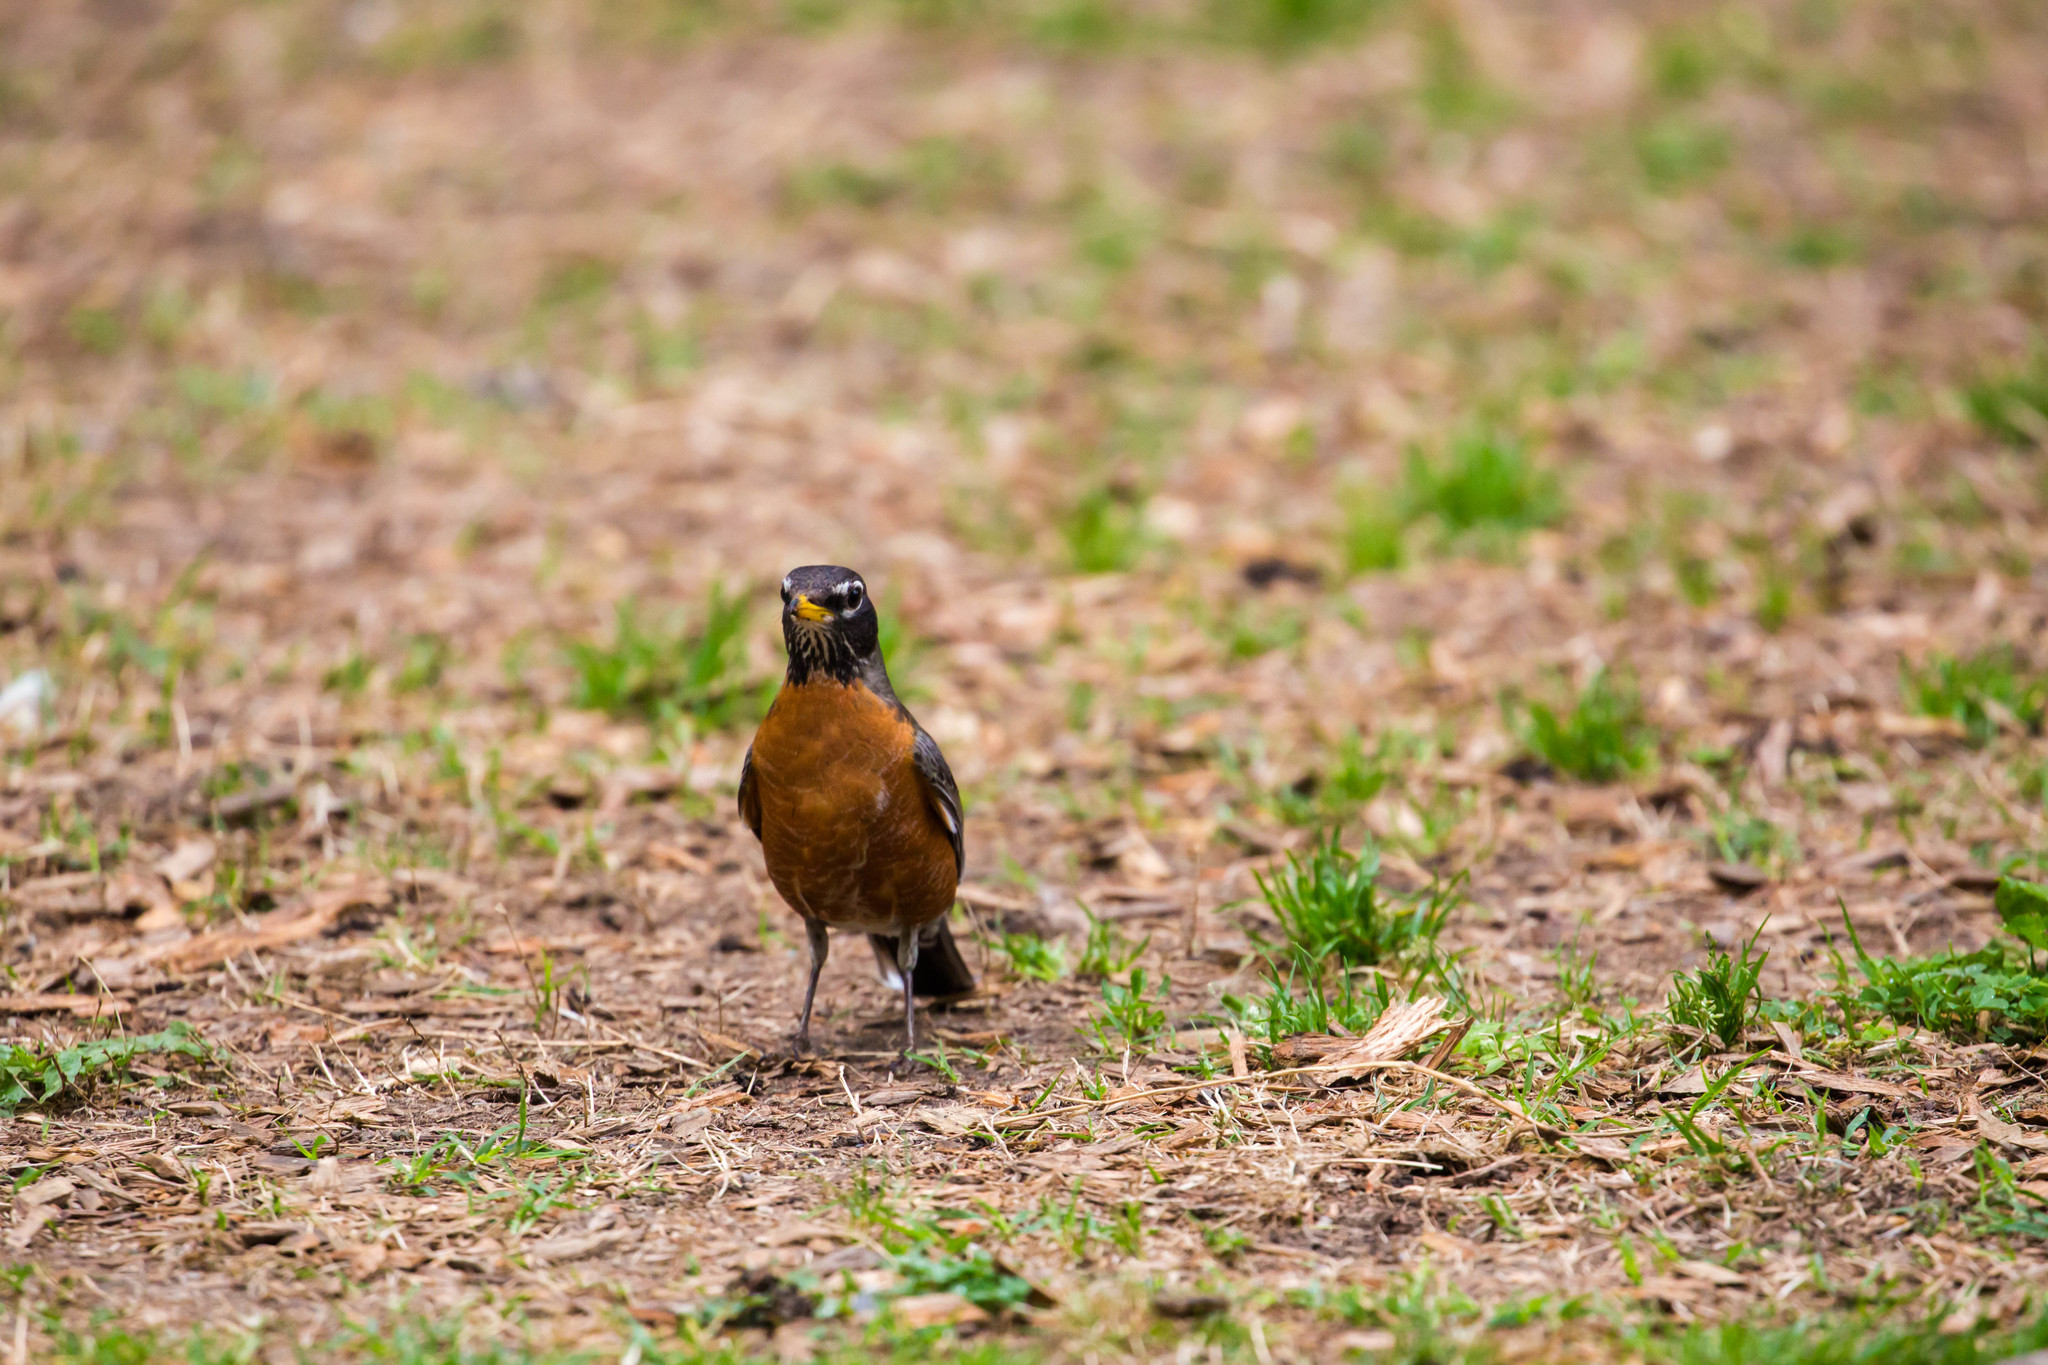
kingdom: Animalia
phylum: Chordata
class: Aves
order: Passeriformes
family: Turdidae
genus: Turdus
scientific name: Turdus migratorius
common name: American robin
